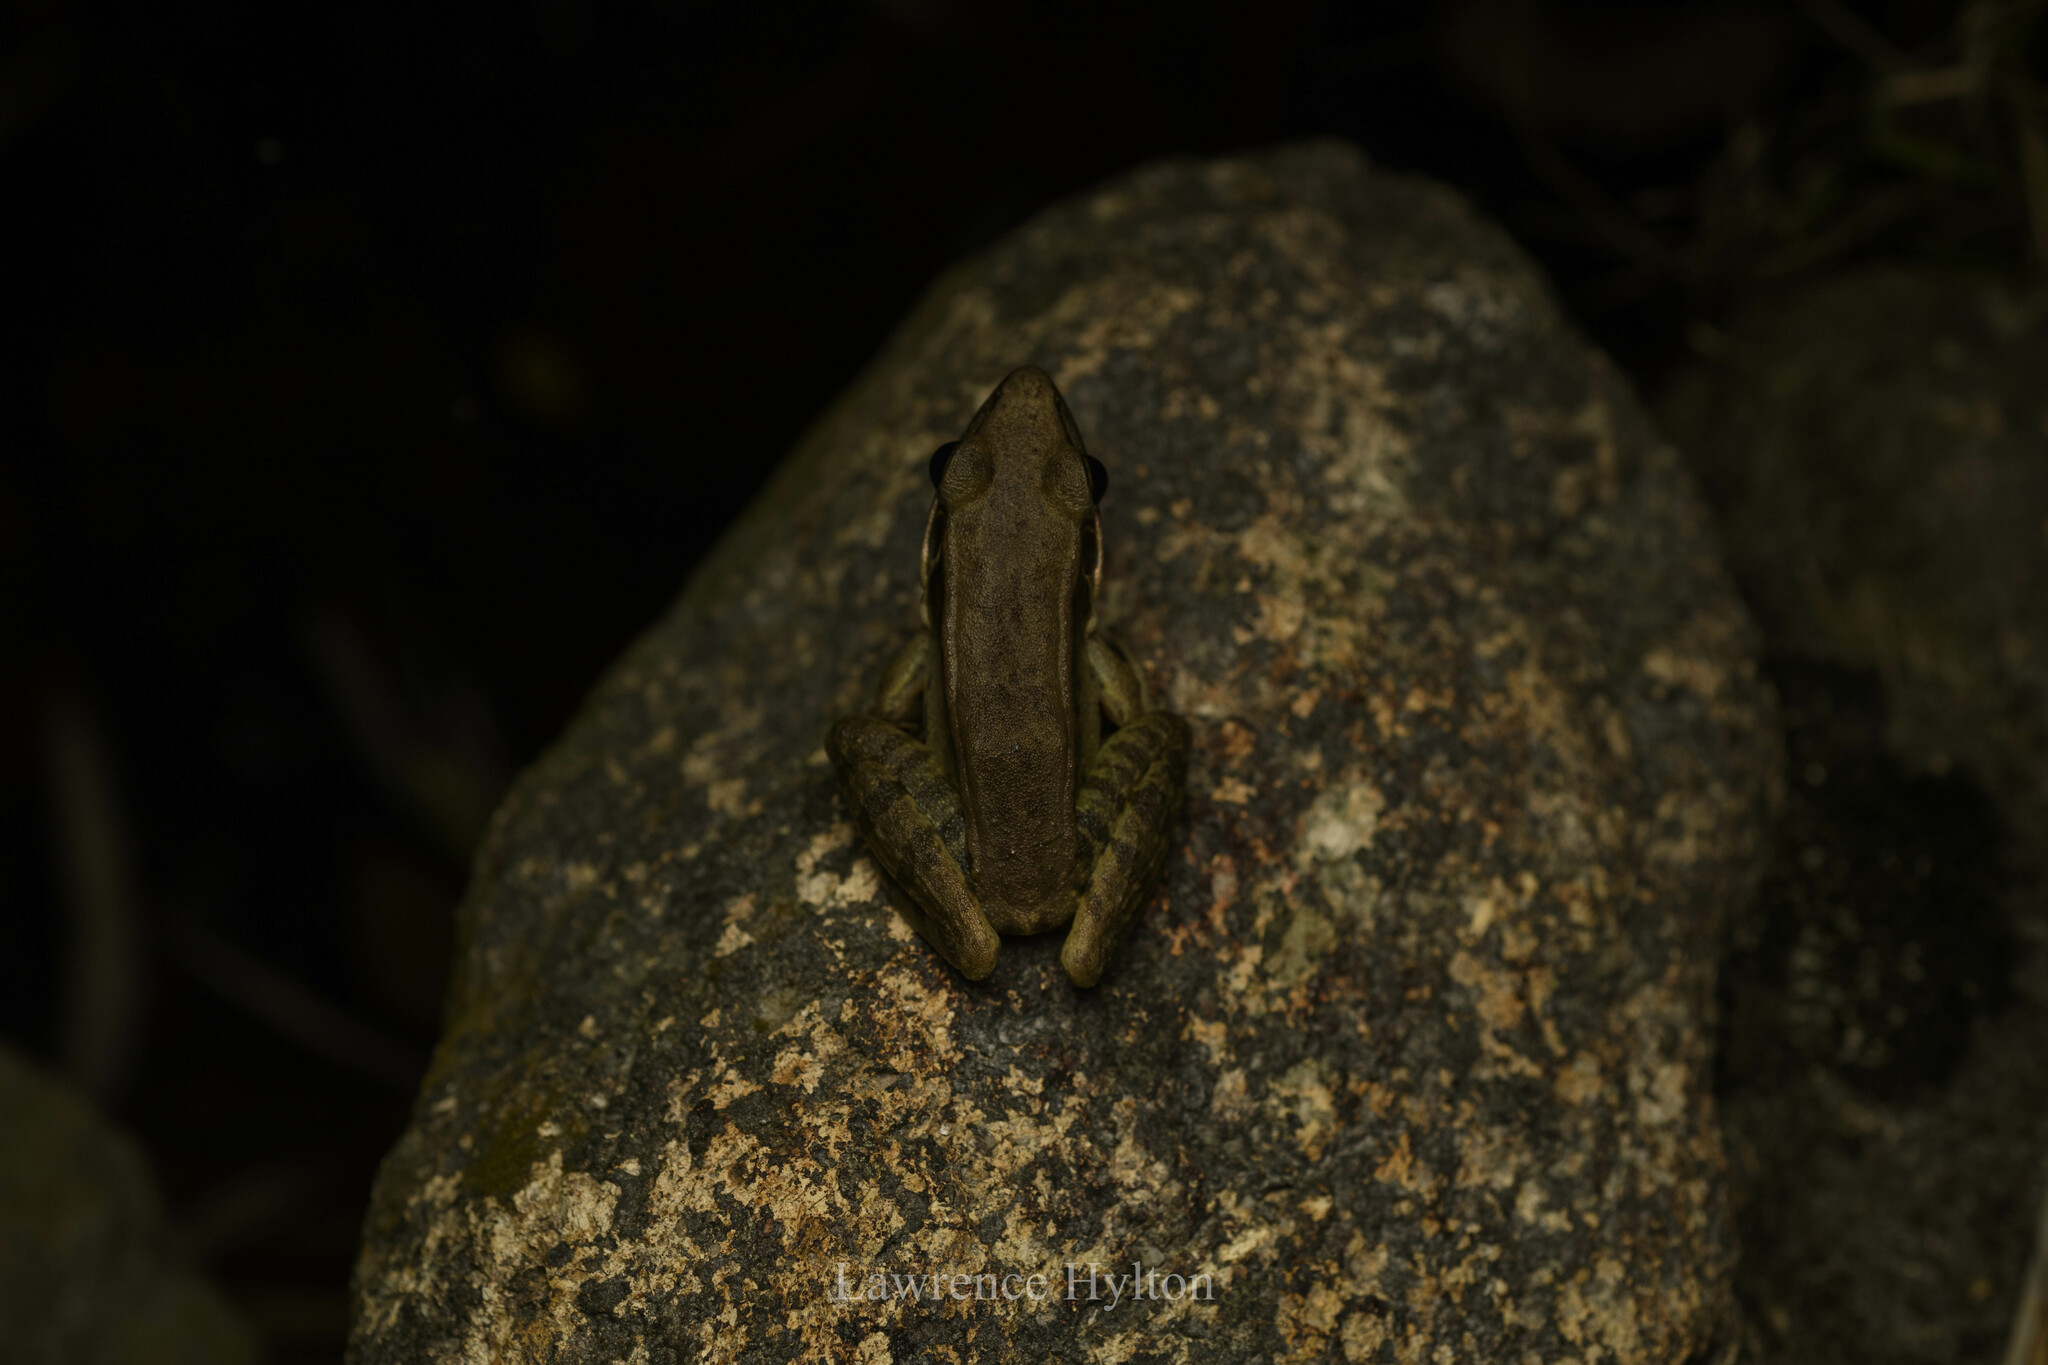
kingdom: Animalia
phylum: Chordata
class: Amphibia
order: Anura
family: Ranidae
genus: Sylvirana
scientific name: Sylvirana guentheri
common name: Guenther's amoy frog
